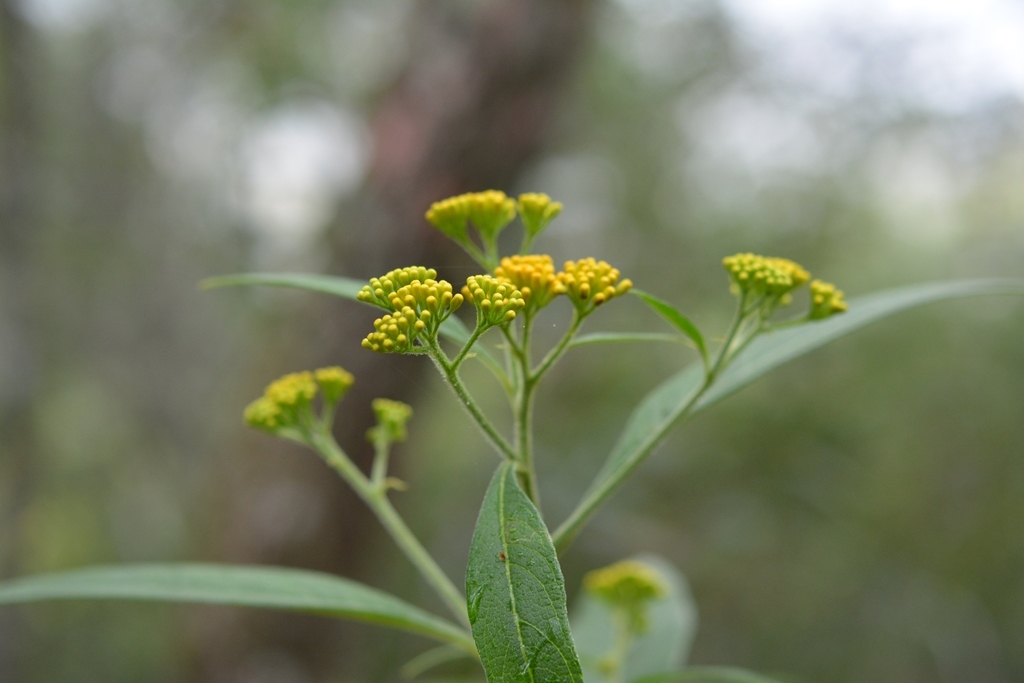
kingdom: Plantae
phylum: Tracheophyta
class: Magnoliopsida
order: Asterales
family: Asteraceae
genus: Neurolaena
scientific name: Neurolaena lamina
